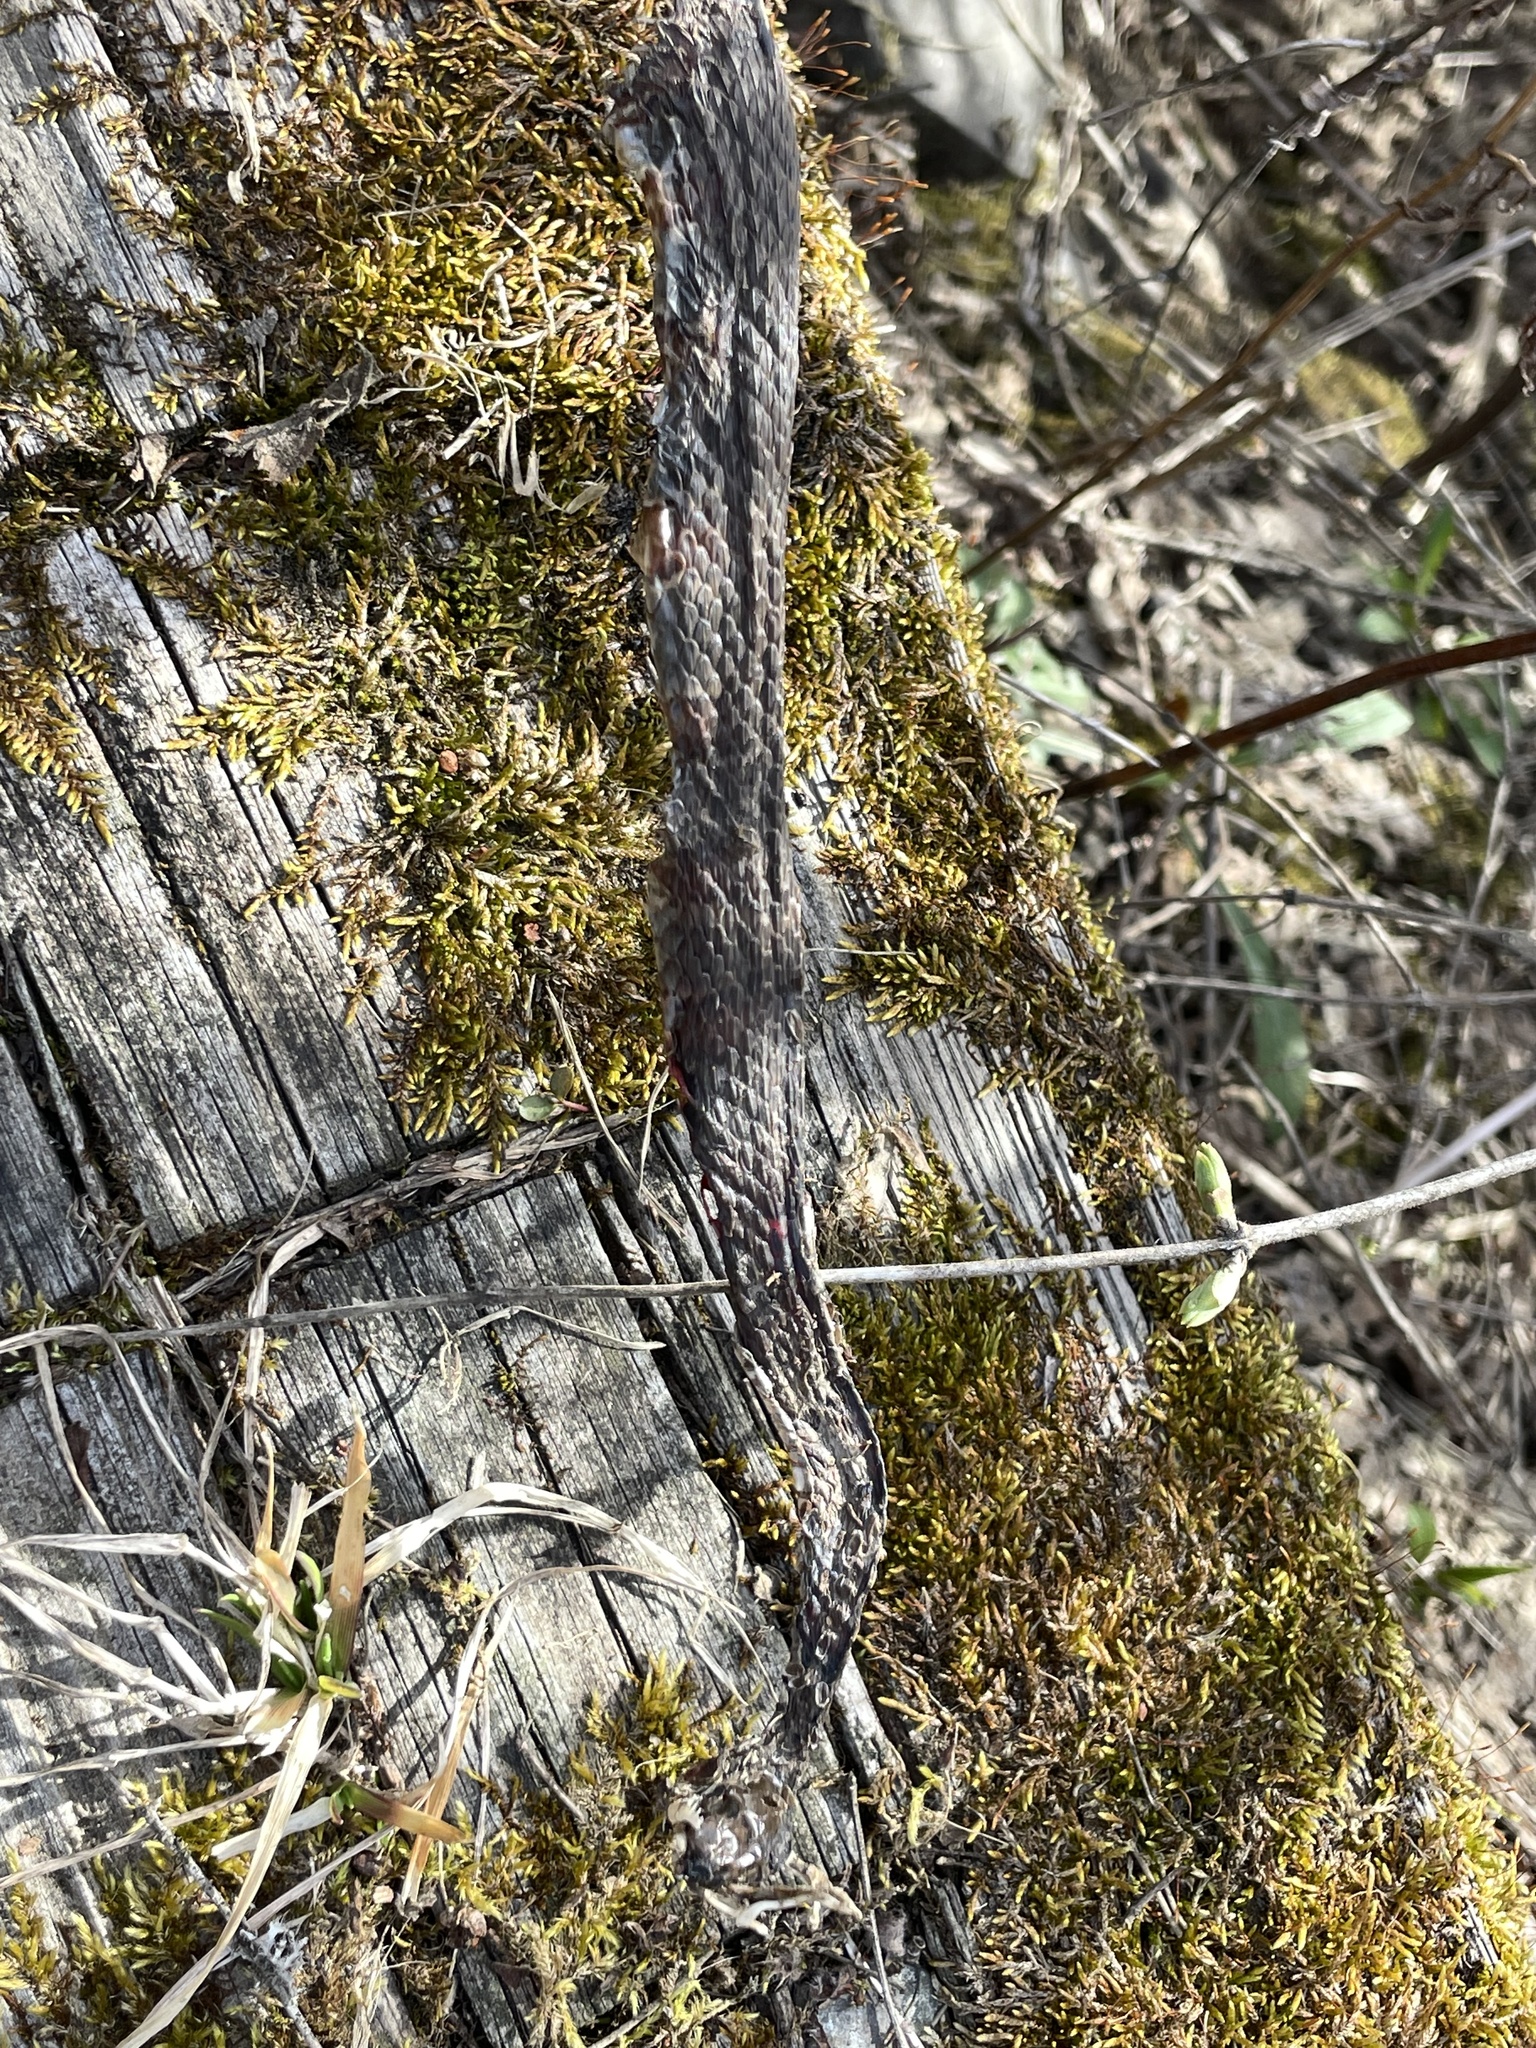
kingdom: Animalia
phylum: Chordata
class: Squamata
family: Colubridae
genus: Nerodia
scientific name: Nerodia sipedon
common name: Northern water snake
